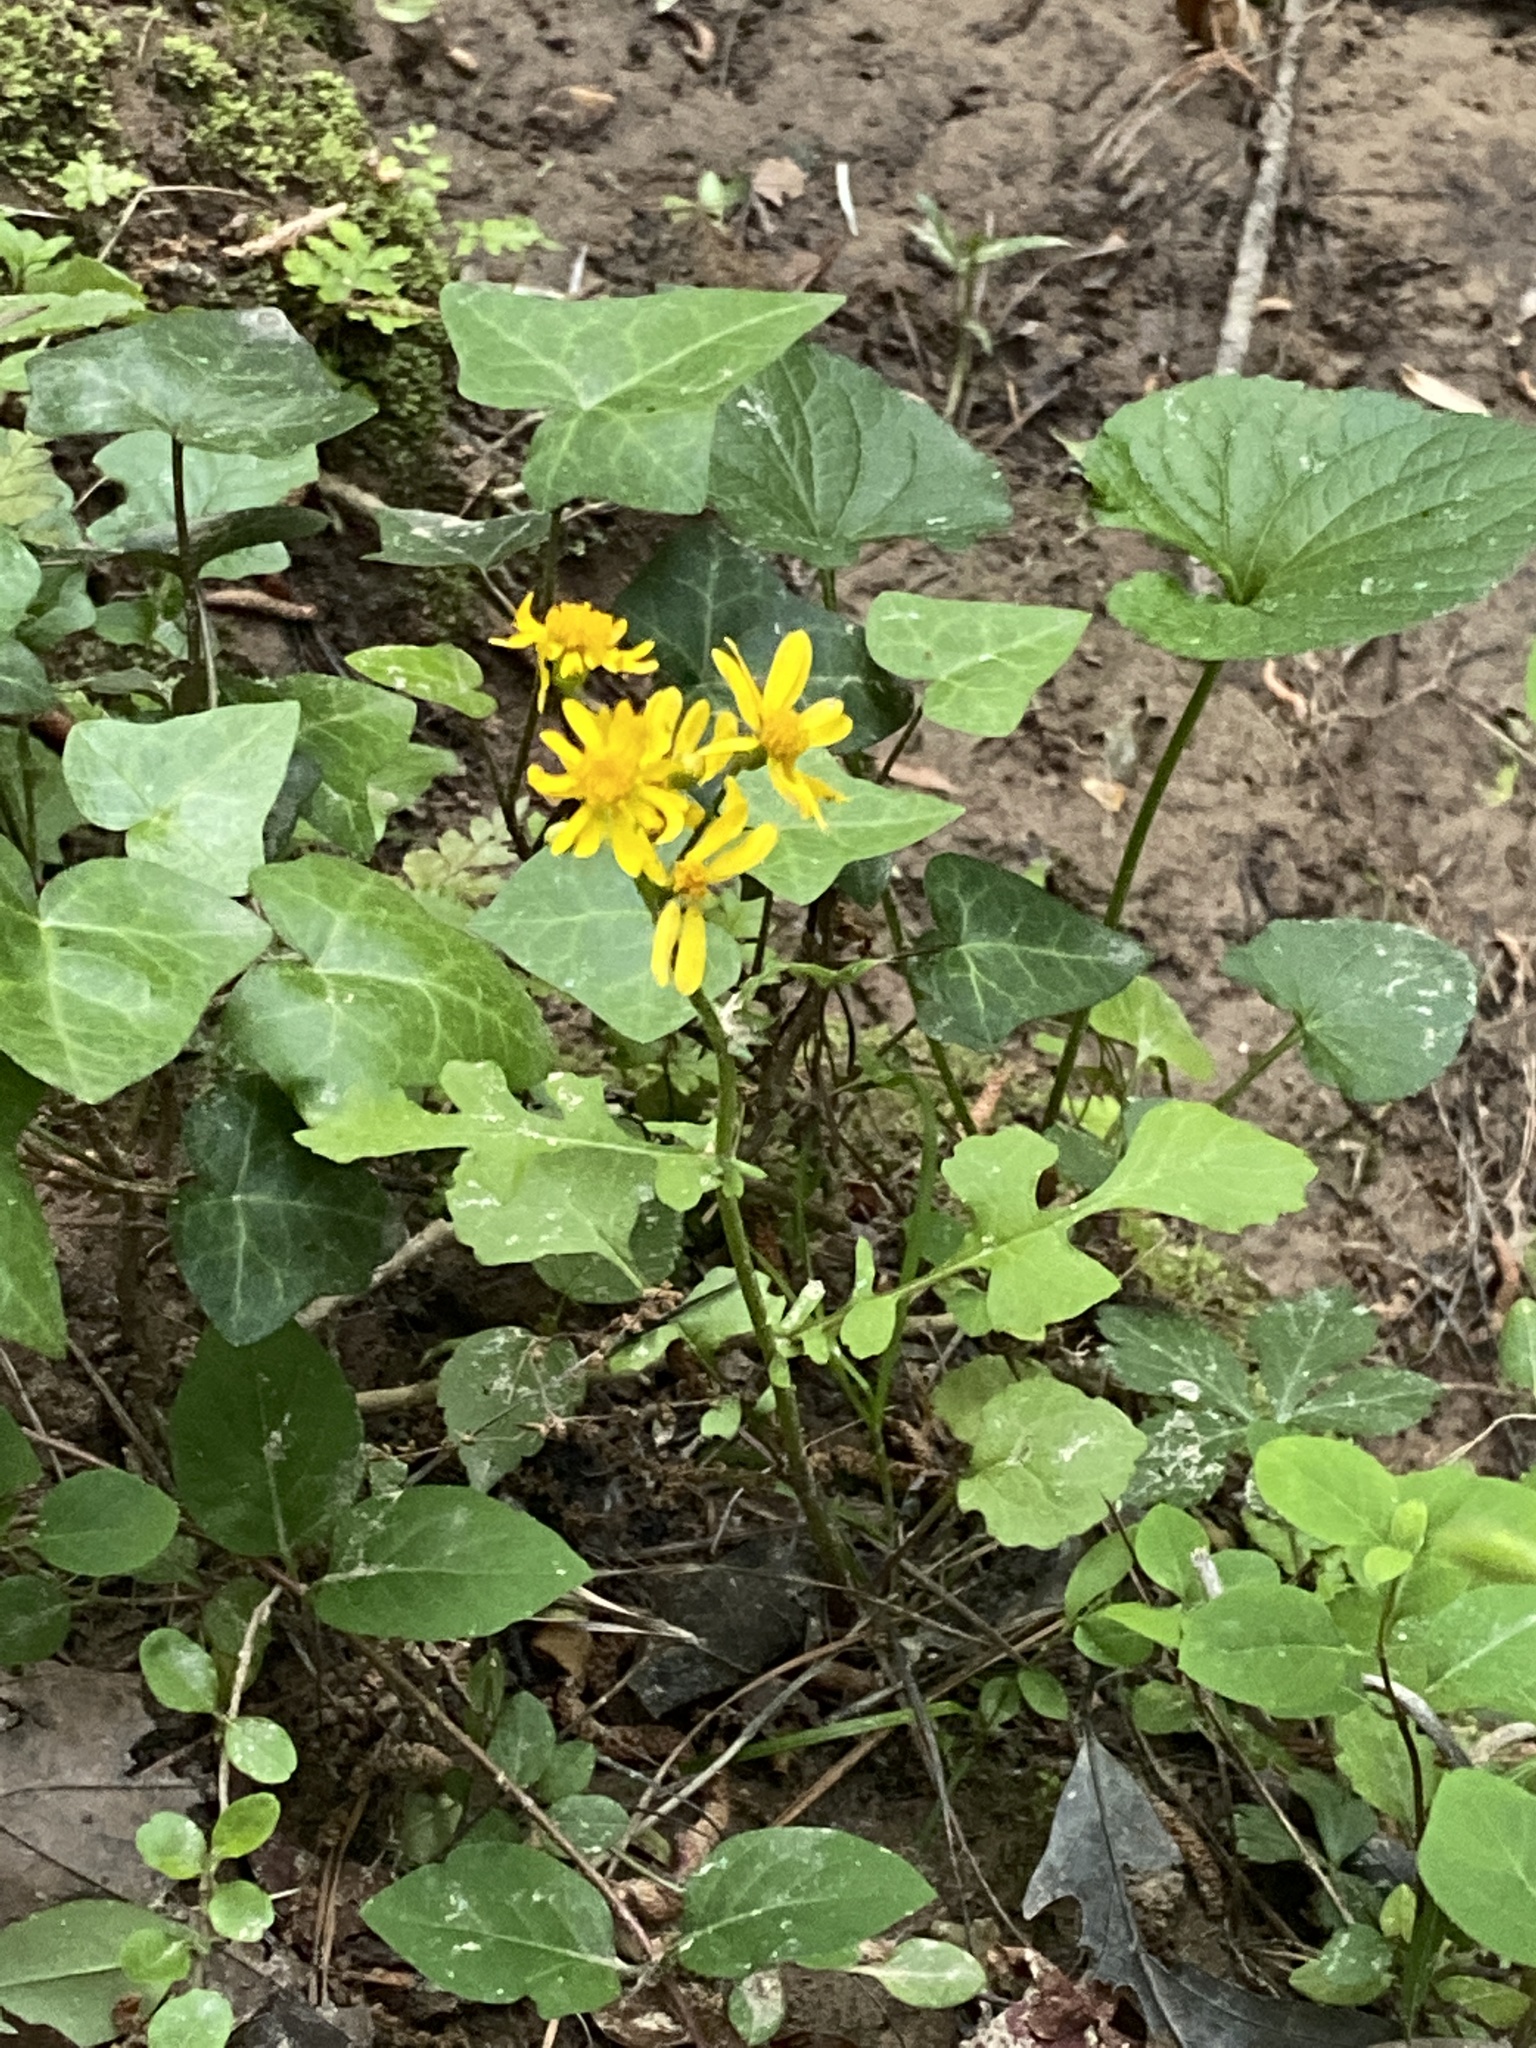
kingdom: Plantae
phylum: Tracheophyta
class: Magnoliopsida
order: Asterales
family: Asteraceae
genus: Packera
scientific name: Packera glabella
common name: Butterweed
